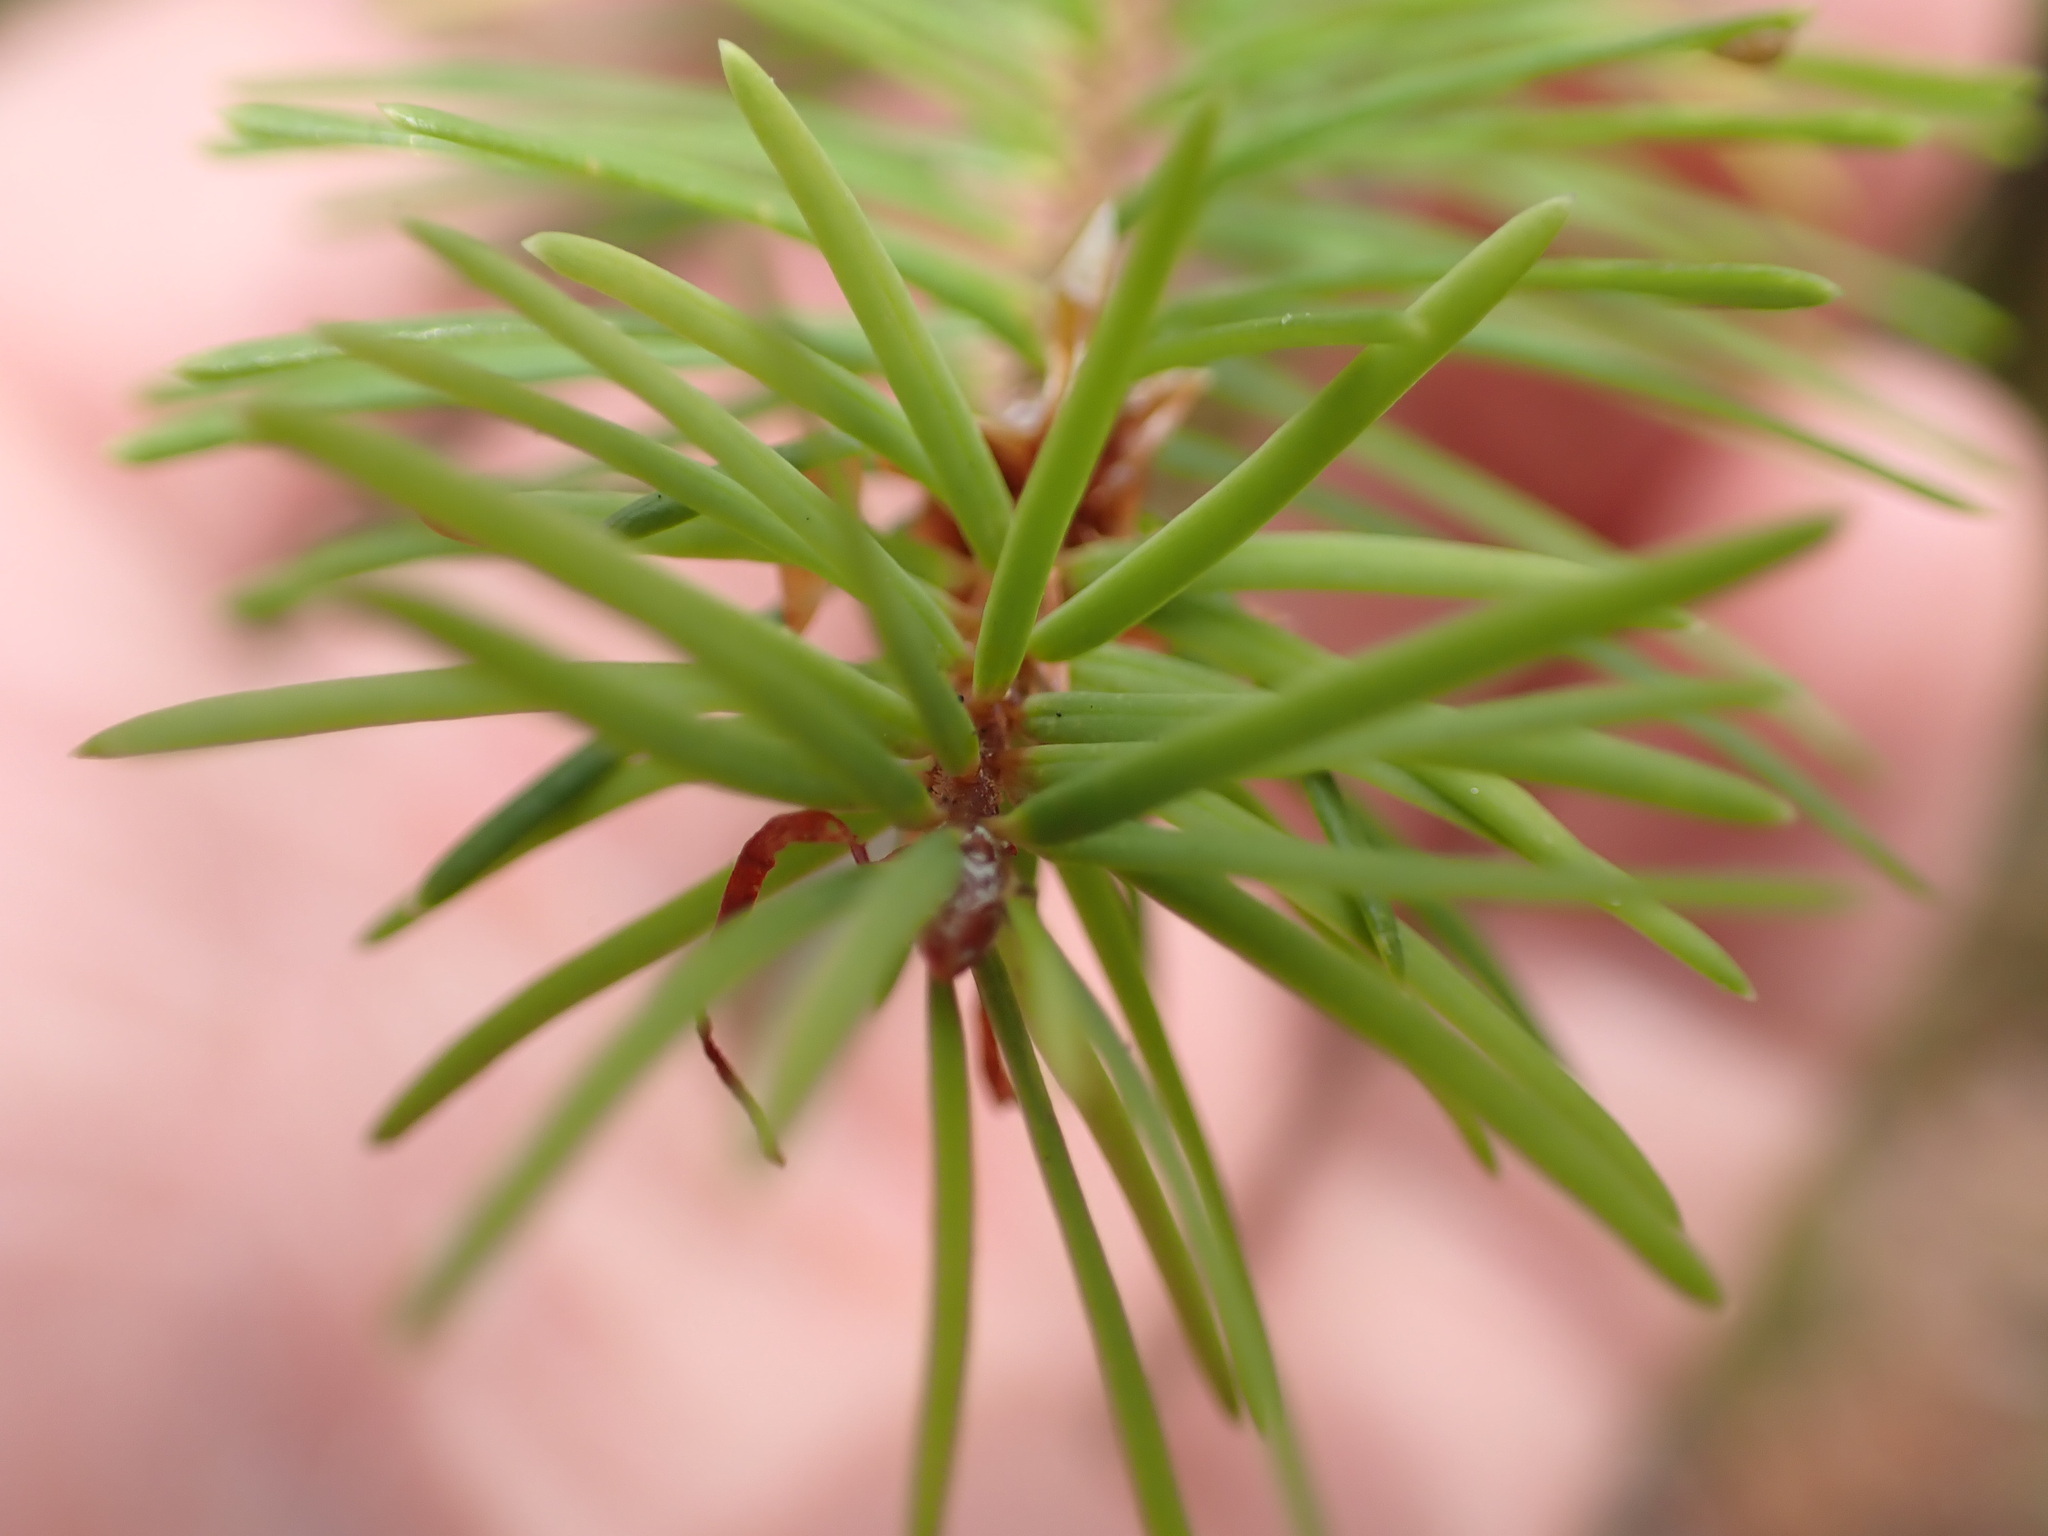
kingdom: Plantae
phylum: Tracheophyta
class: Pinopsida
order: Pinales
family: Pinaceae
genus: Pseudotsuga
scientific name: Pseudotsuga menziesii
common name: Douglas fir
